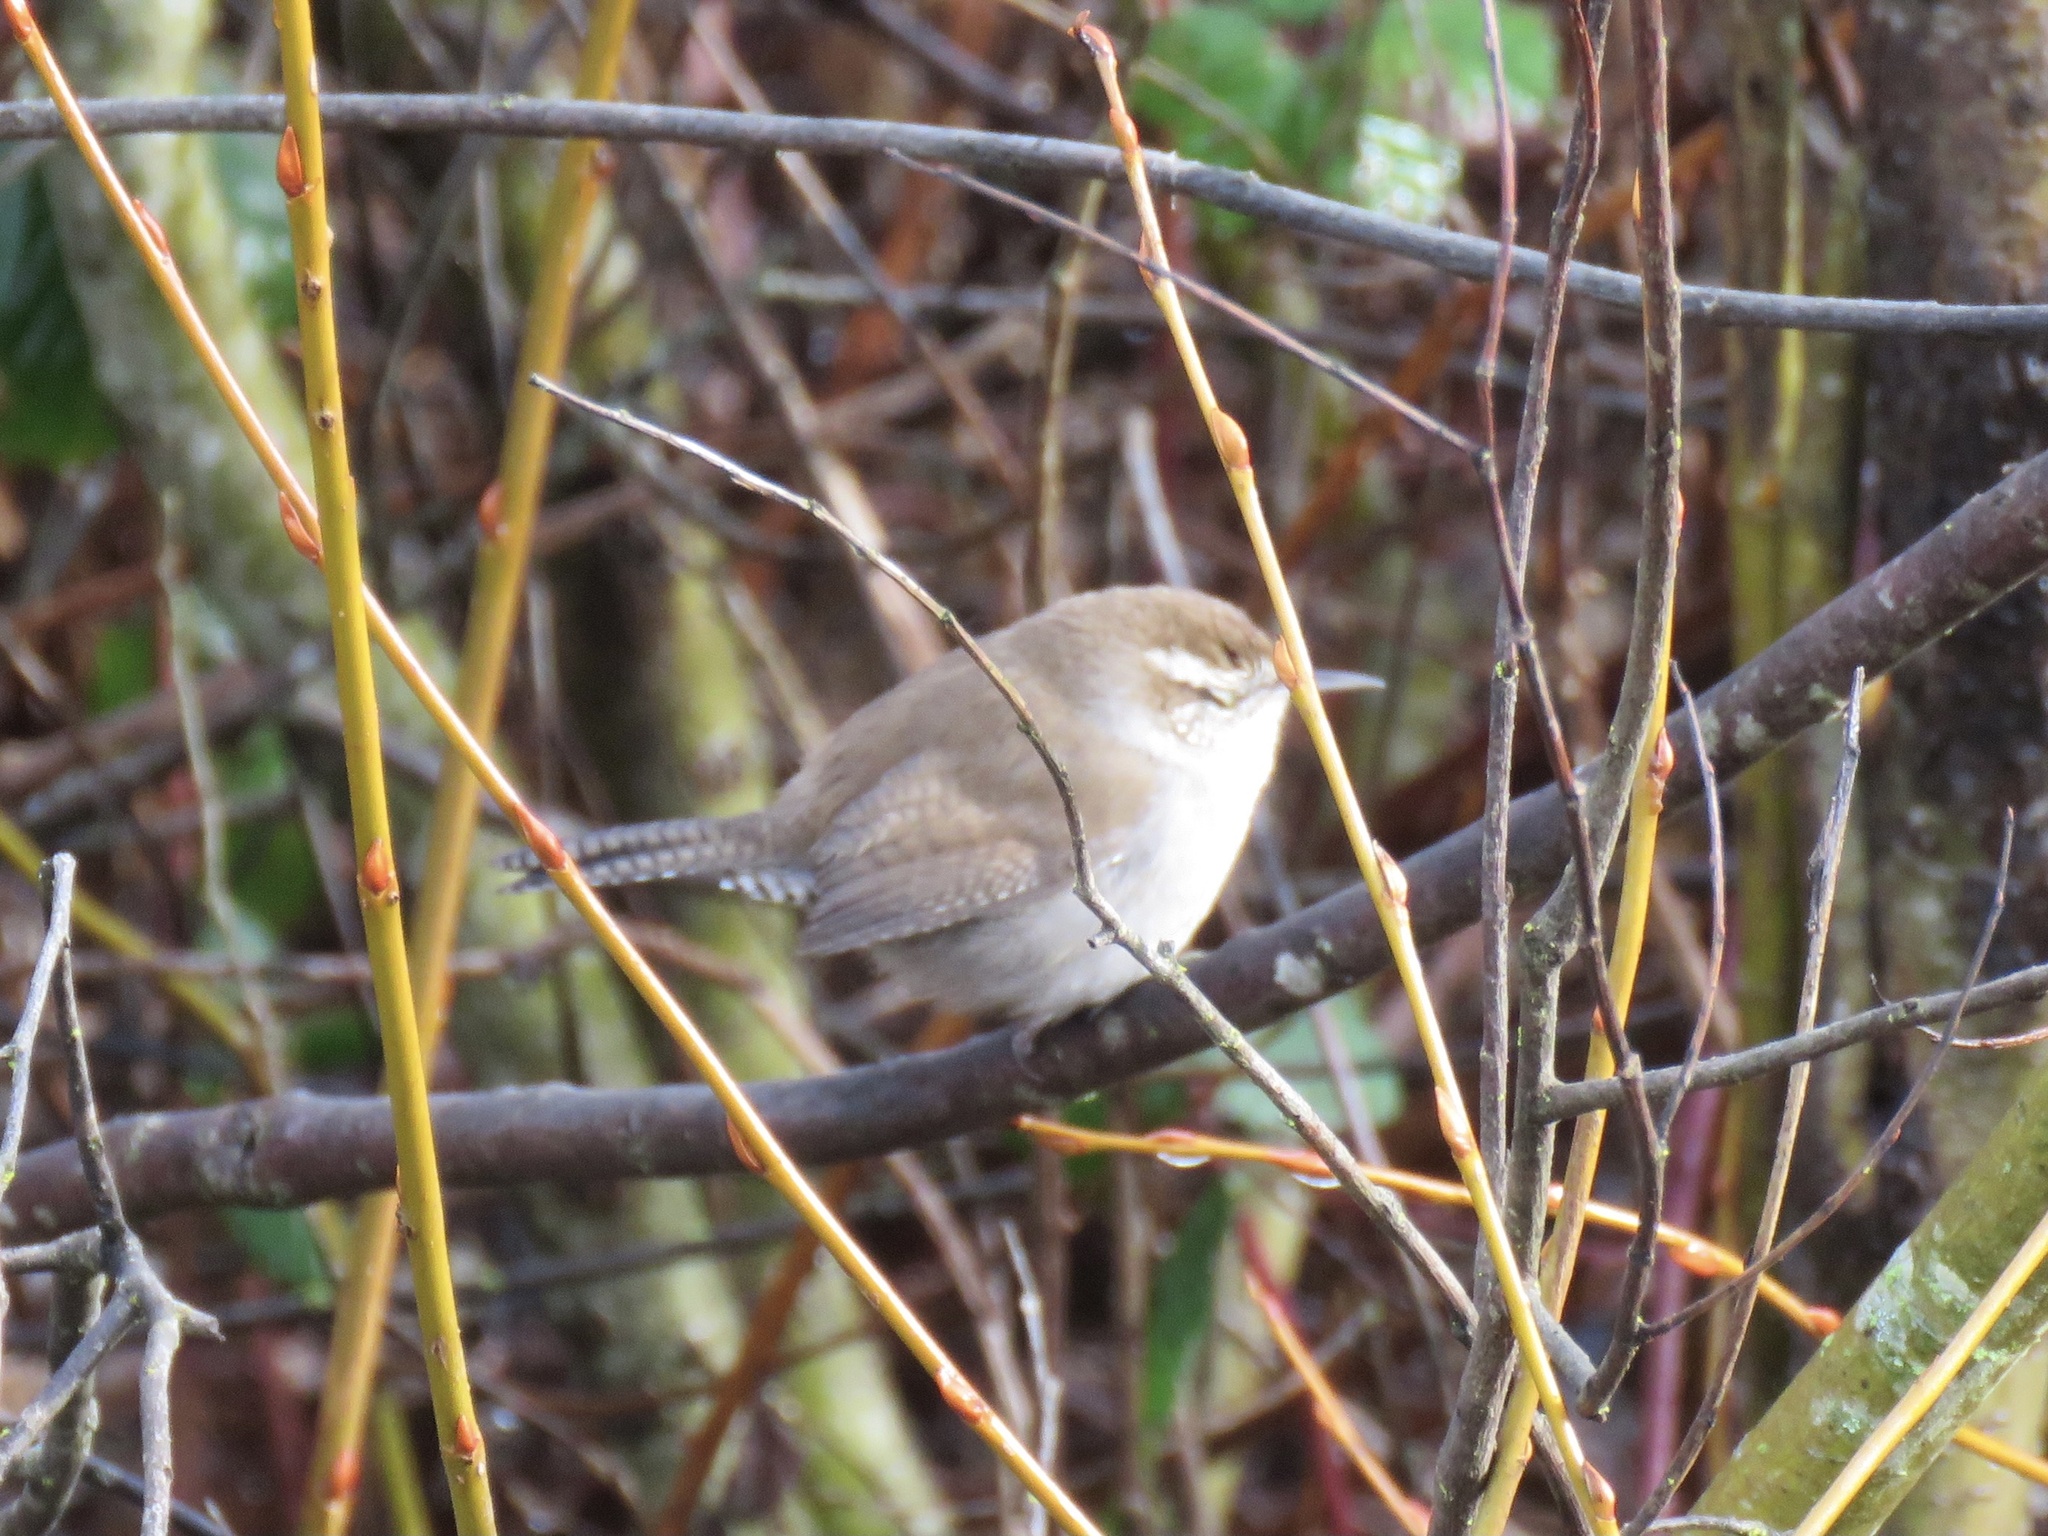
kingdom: Animalia
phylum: Chordata
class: Aves
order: Passeriformes
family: Troglodytidae
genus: Thryomanes
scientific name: Thryomanes bewickii
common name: Bewick's wren
